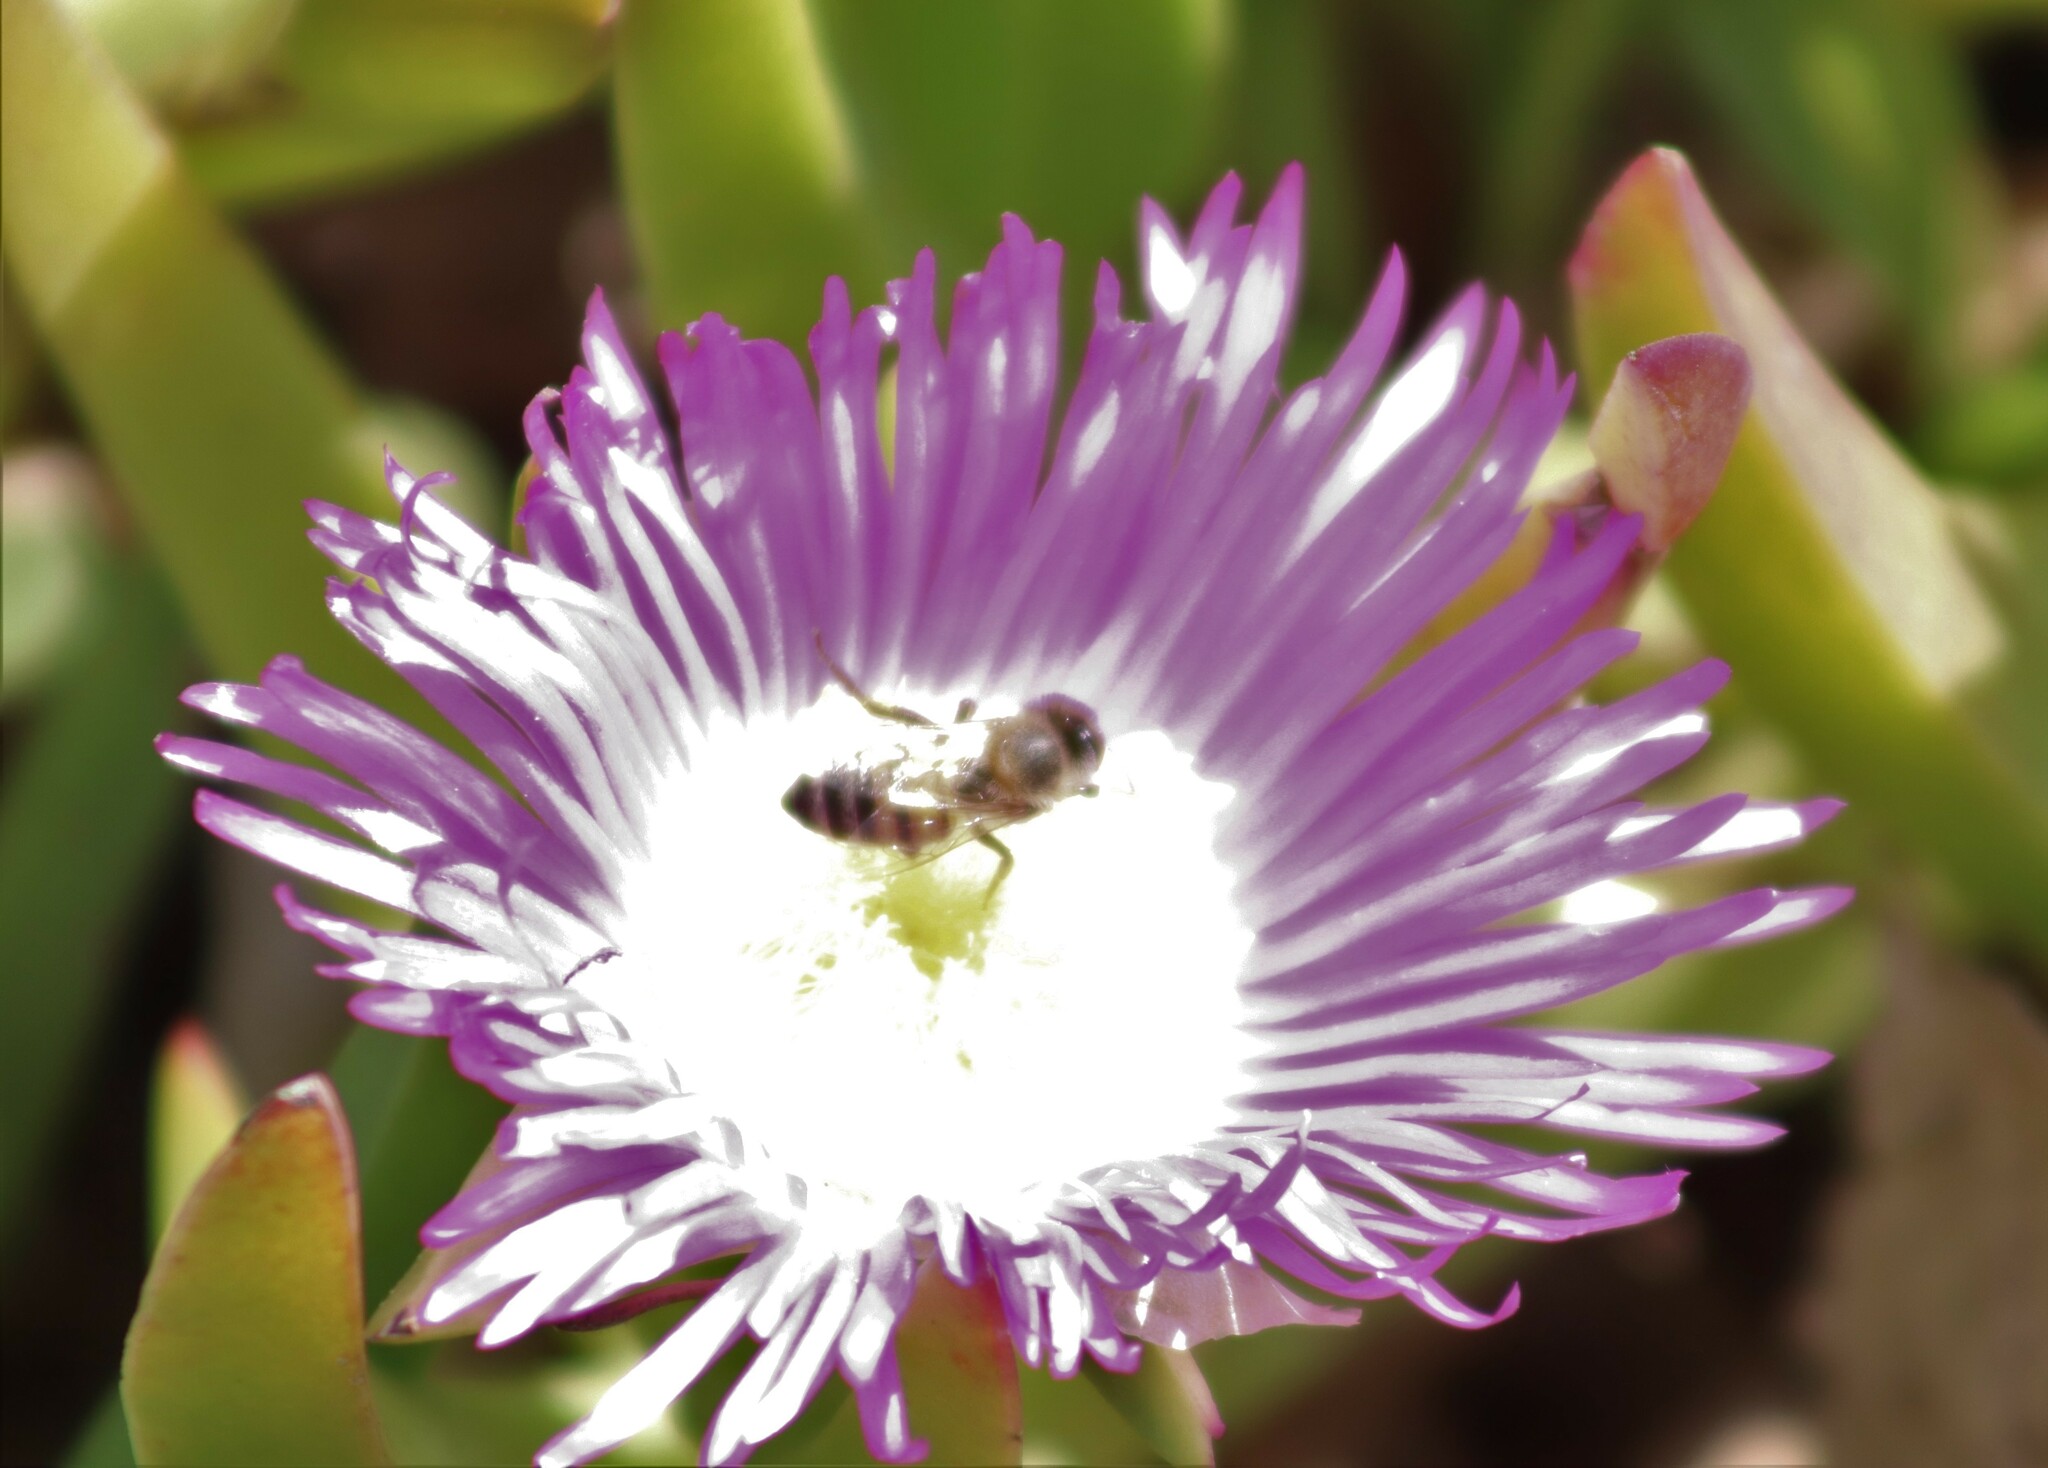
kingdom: Animalia
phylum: Arthropoda
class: Insecta
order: Hymenoptera
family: Apidae
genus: Apis
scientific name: Apis mellifera
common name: Honey bee
